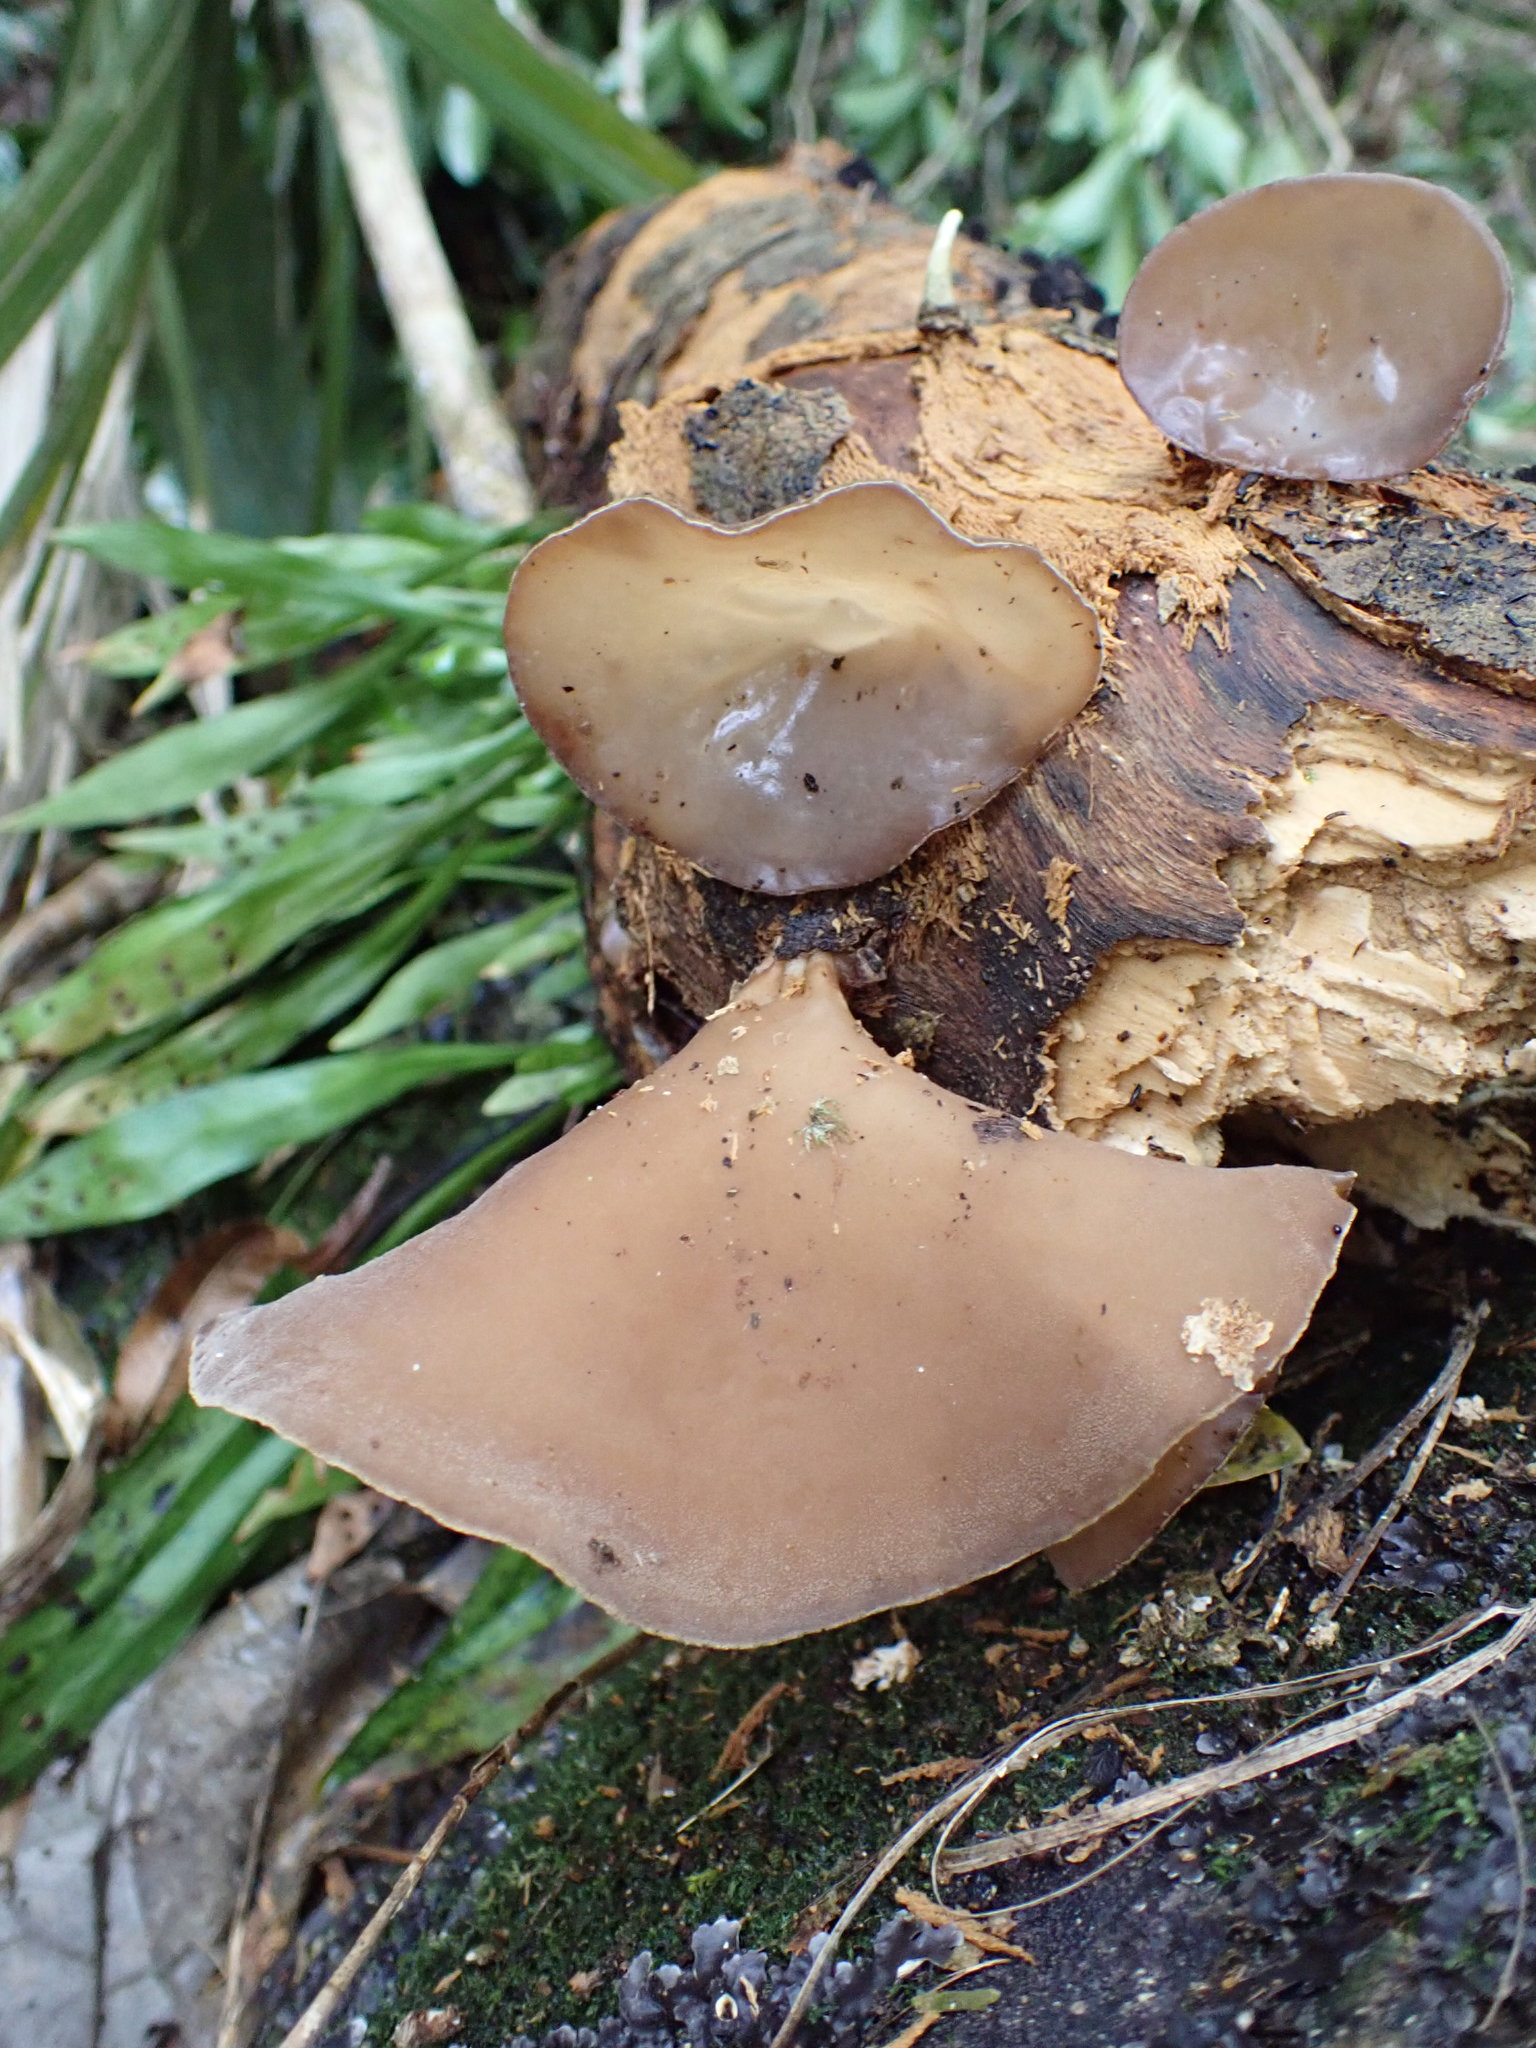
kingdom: Fungi
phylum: Basidiomycota
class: Agaricomycetes
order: Auriculariales
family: Auriculariaceae
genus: Auricularia
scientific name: Auricularia cornea
